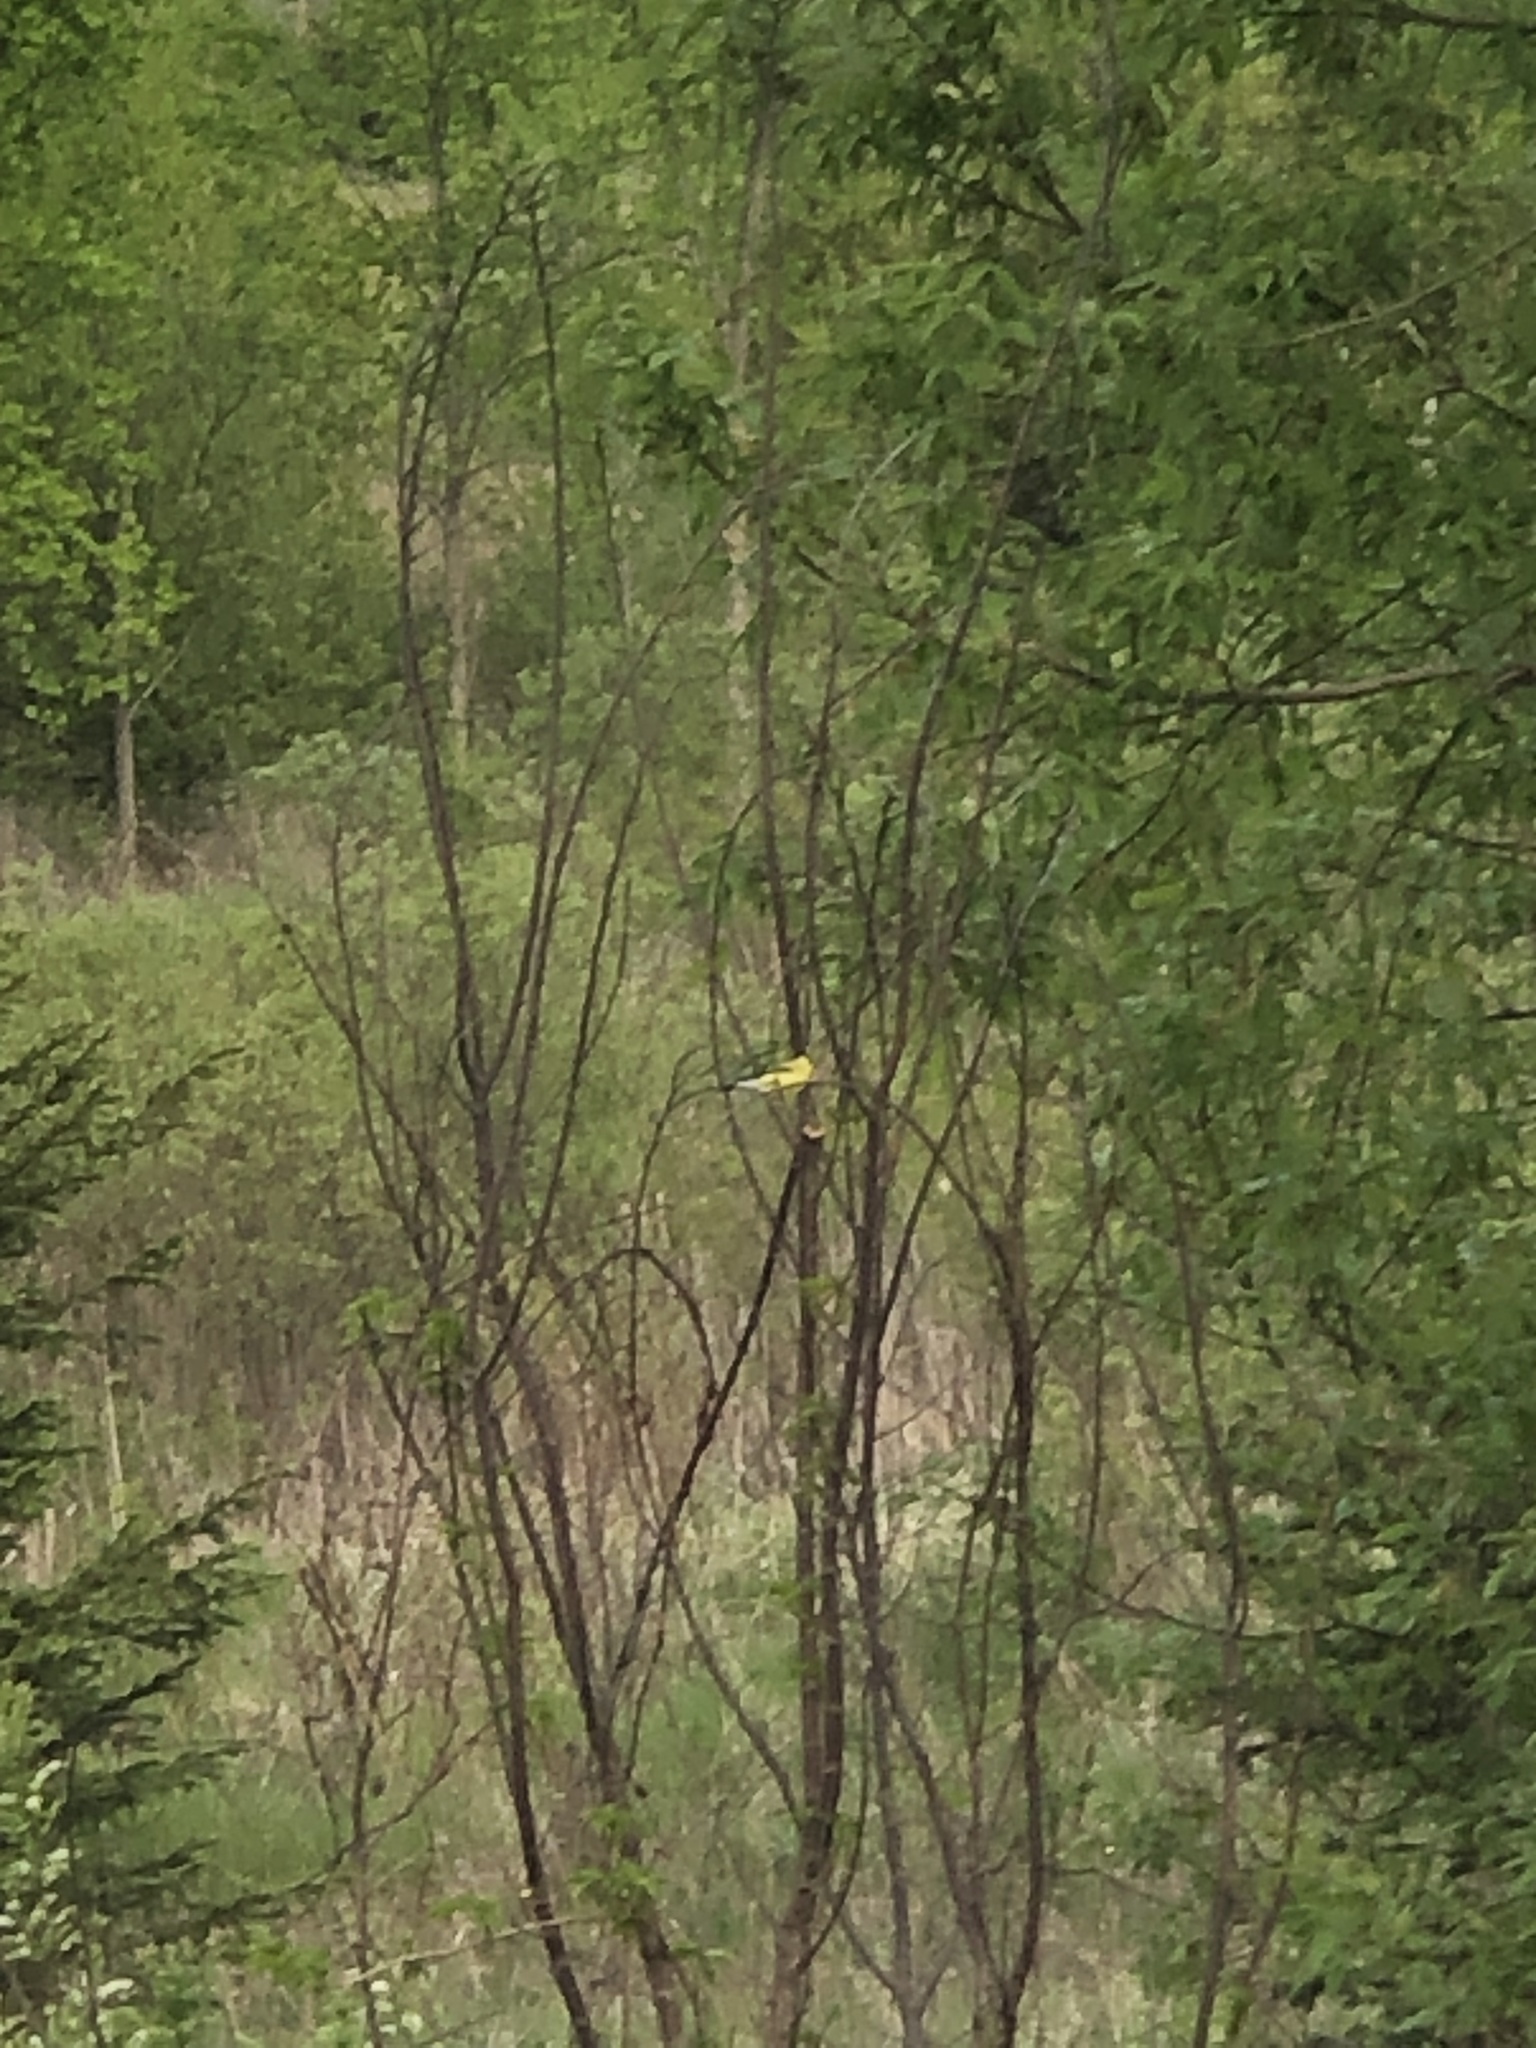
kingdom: Animalia
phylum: Chordata
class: Aves
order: Passeriformes
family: Fringillidae
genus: Spinus
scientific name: Spinus tristis
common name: American goldfinch
